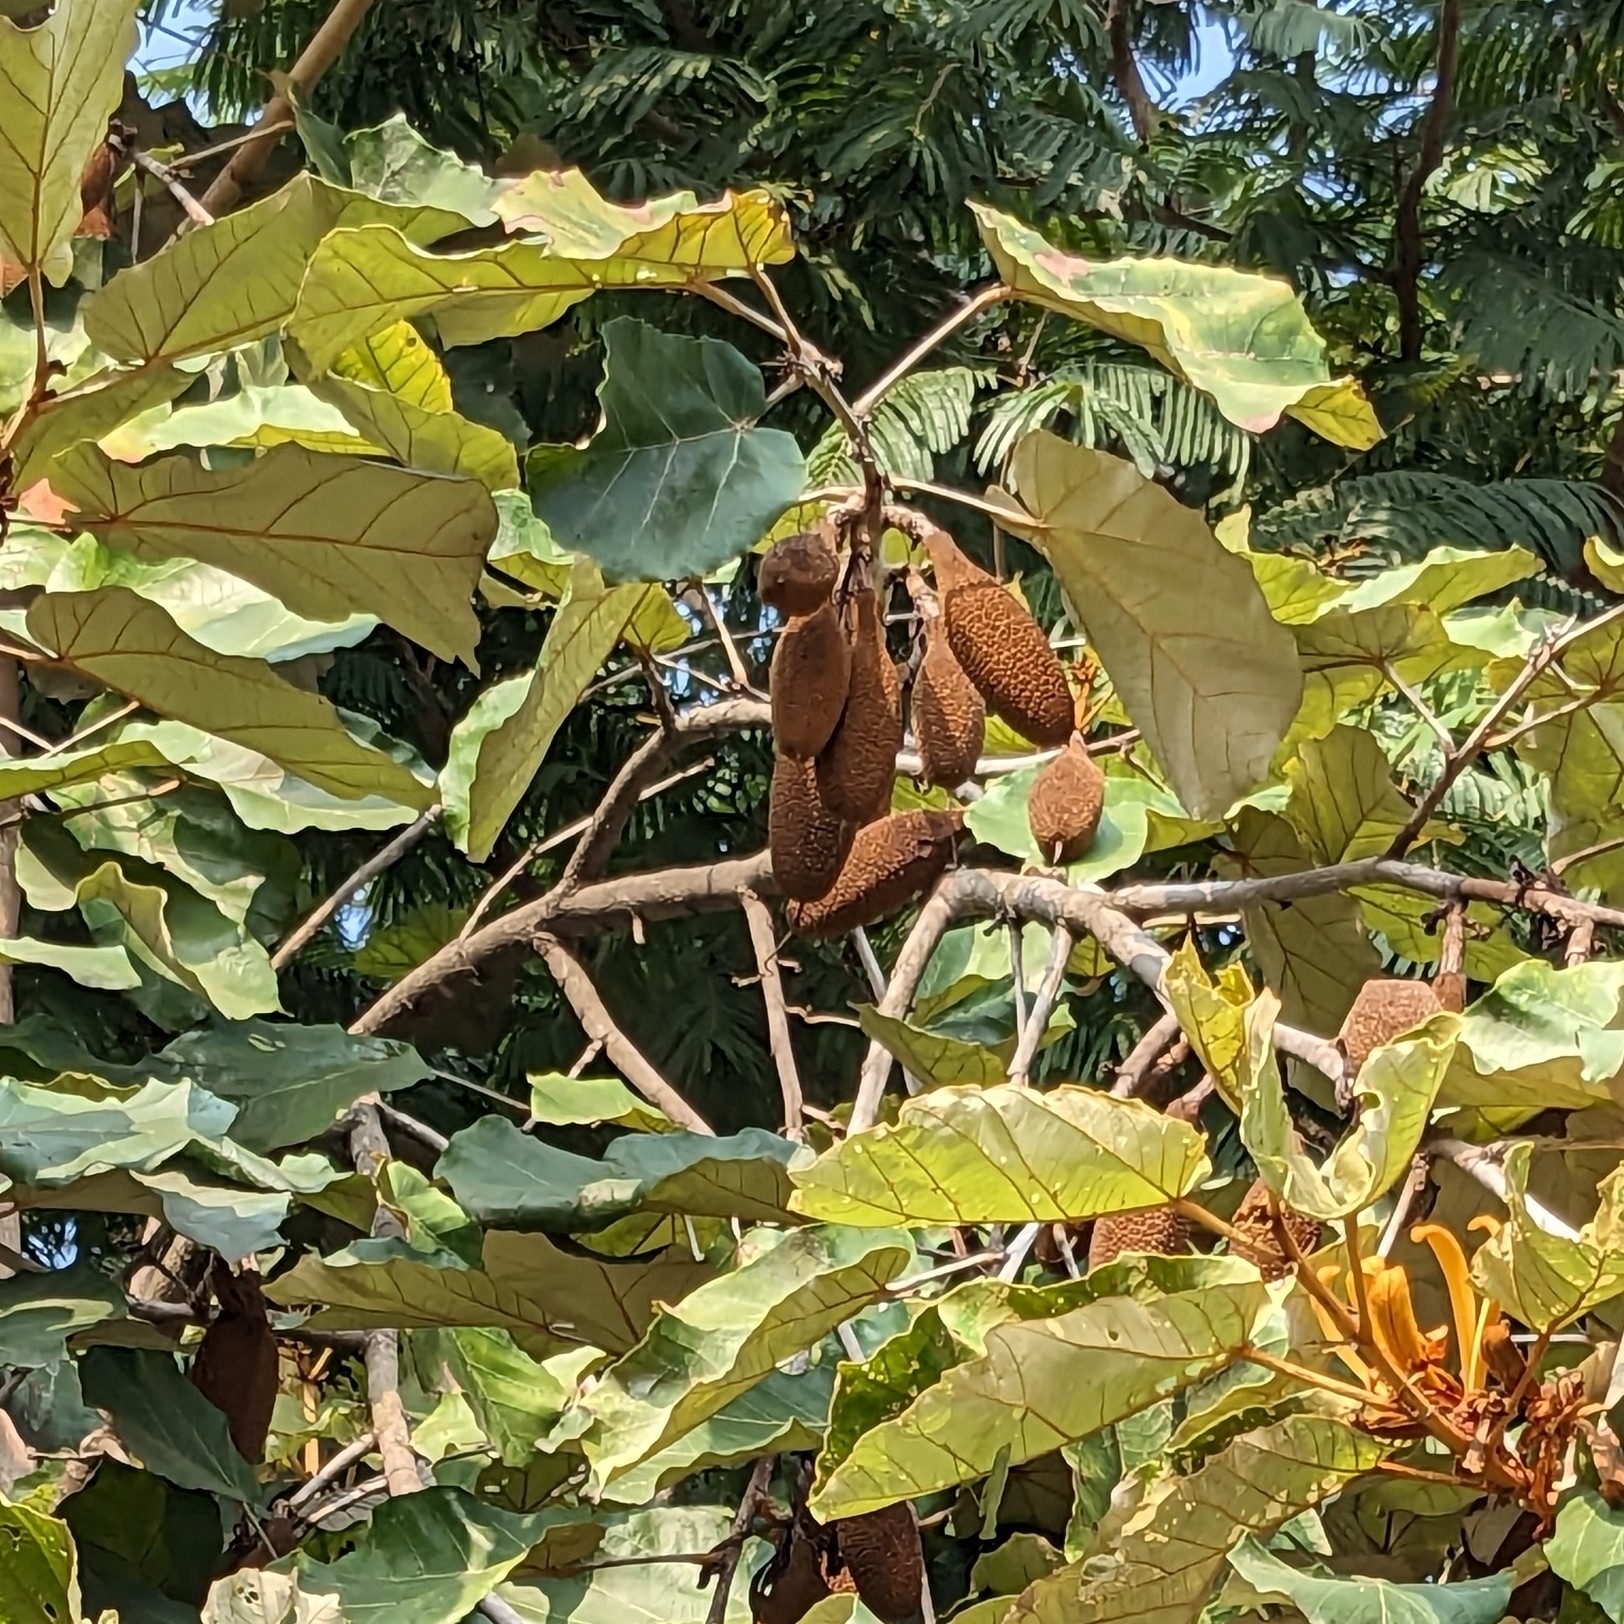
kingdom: Plantae
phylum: Tracheophyta
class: Magnoliopsida
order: Malvales
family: Malvaceae
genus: Pterospermum
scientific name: Pterospermum acerifolium
